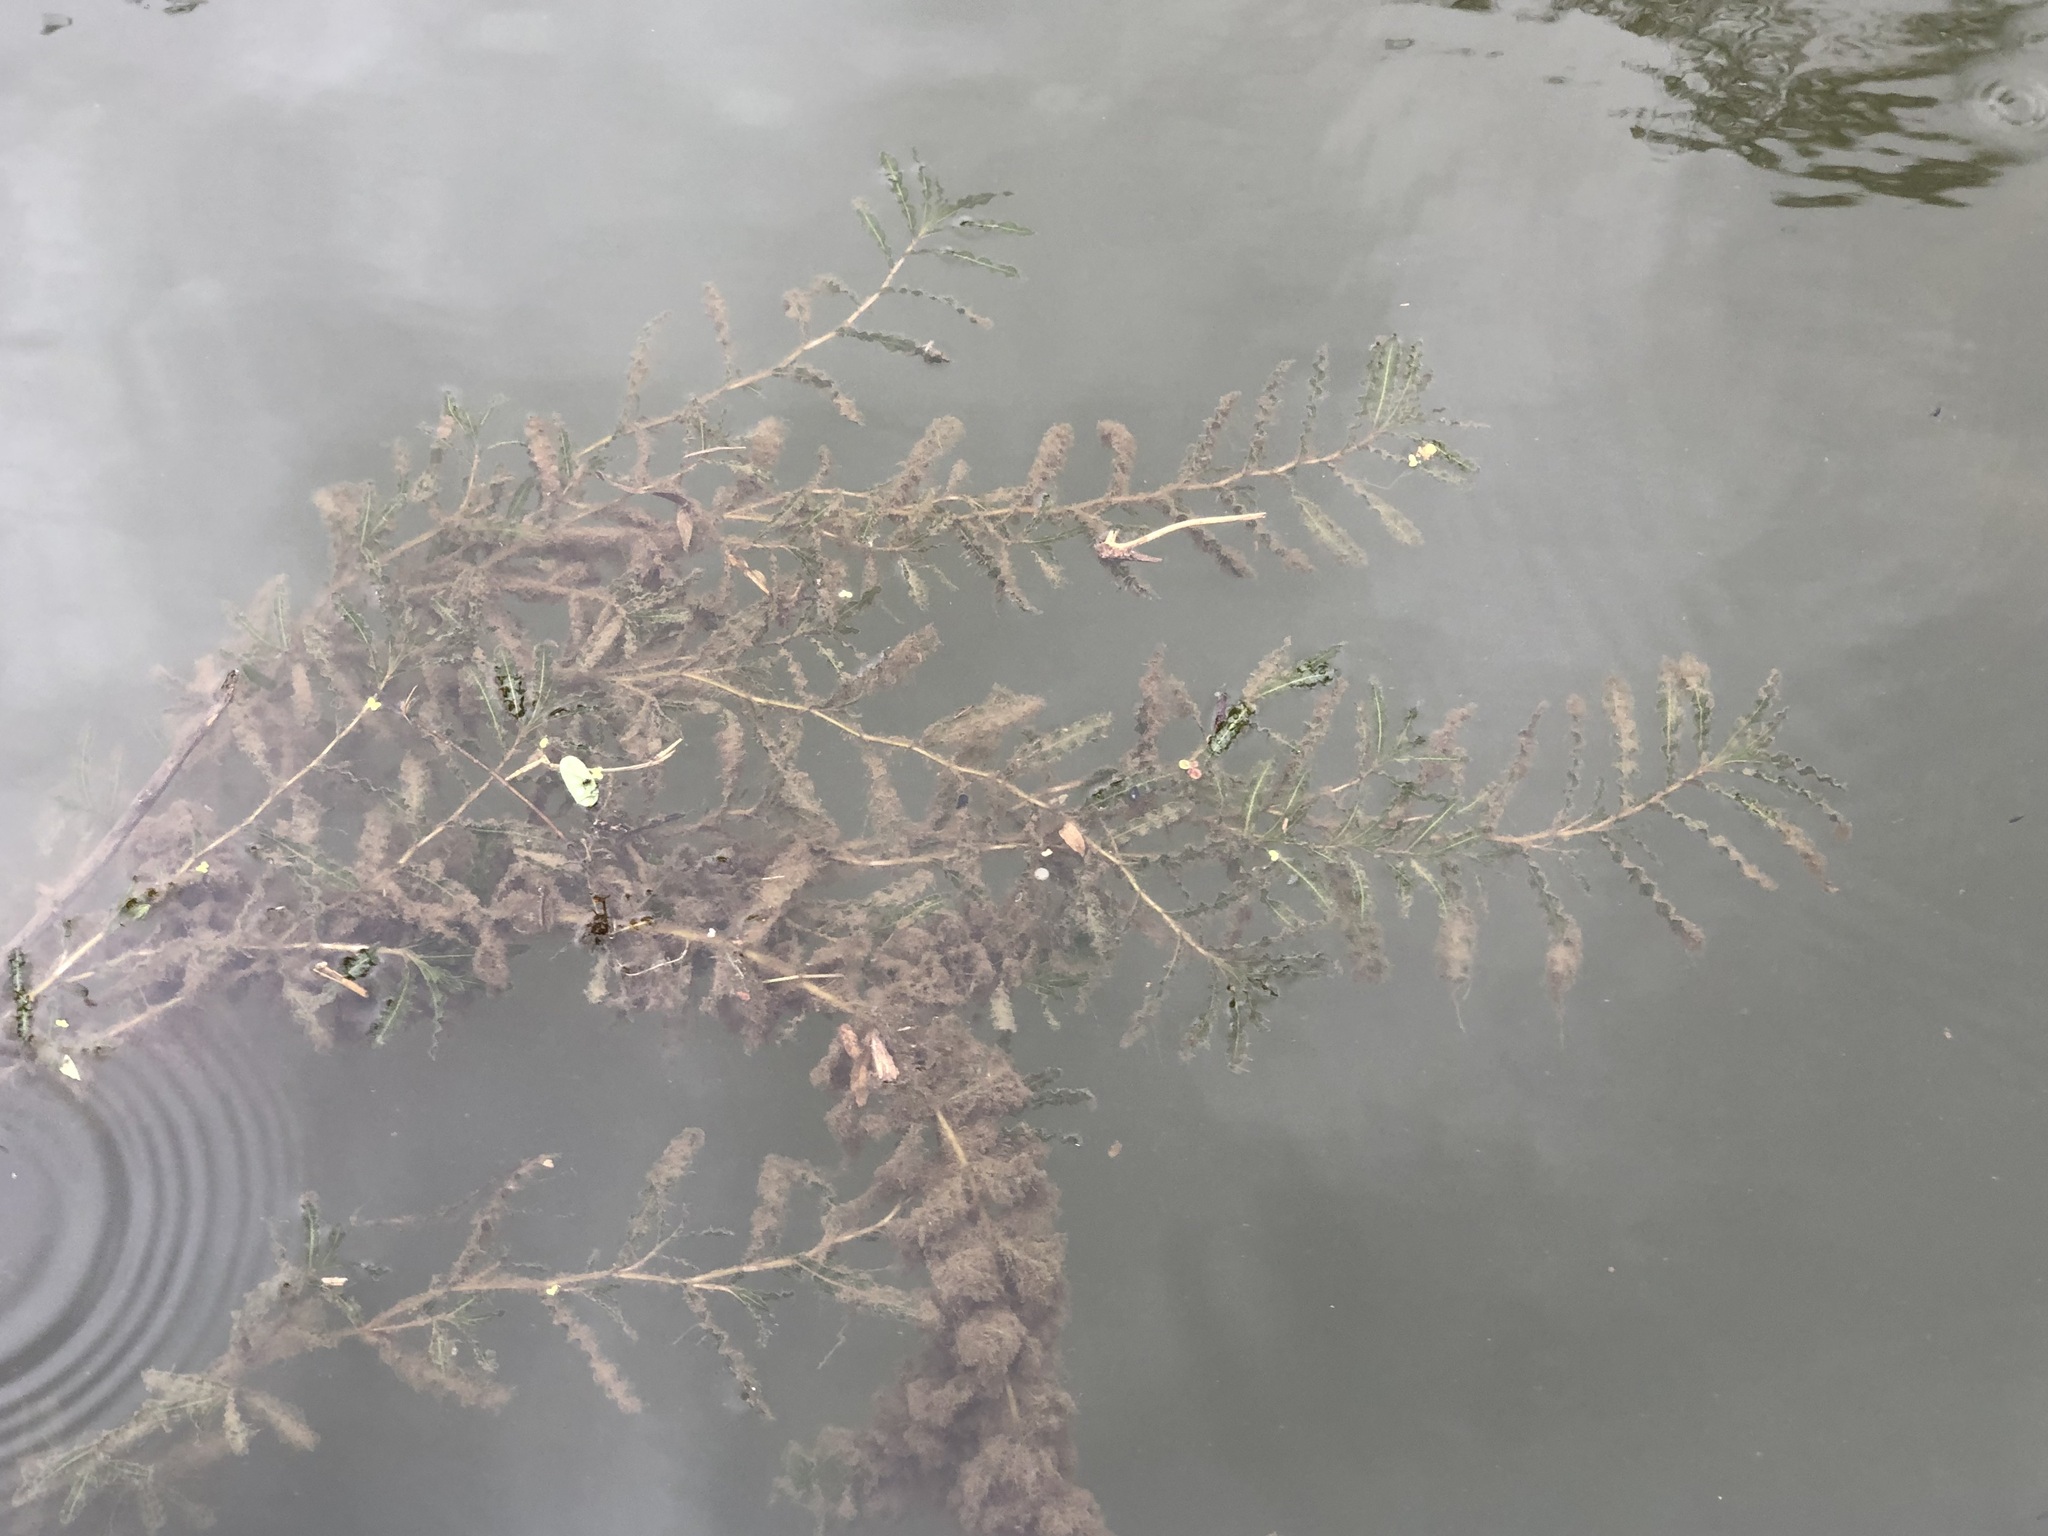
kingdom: Plantae
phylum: Tracheophyta
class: Liliopsida
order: Alismatales
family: Potamogetonaceae
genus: Potamogeton
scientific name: Potamogeton crispus
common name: Curled pondweed
